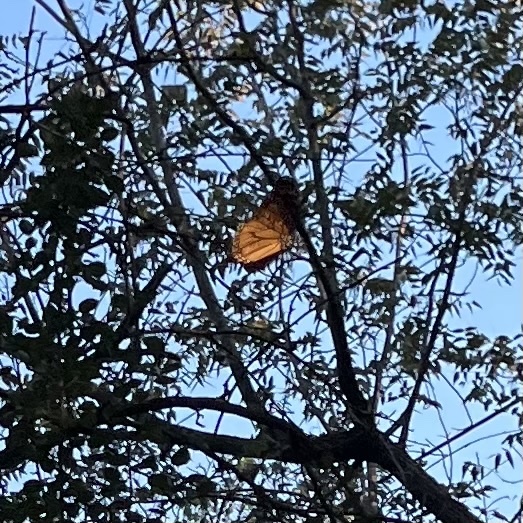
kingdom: Animalia
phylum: Arthropoda
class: Insecta
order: Lepidoptera
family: Nymphalidae
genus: Danaus
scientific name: Danaus plexippus
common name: Monarch
